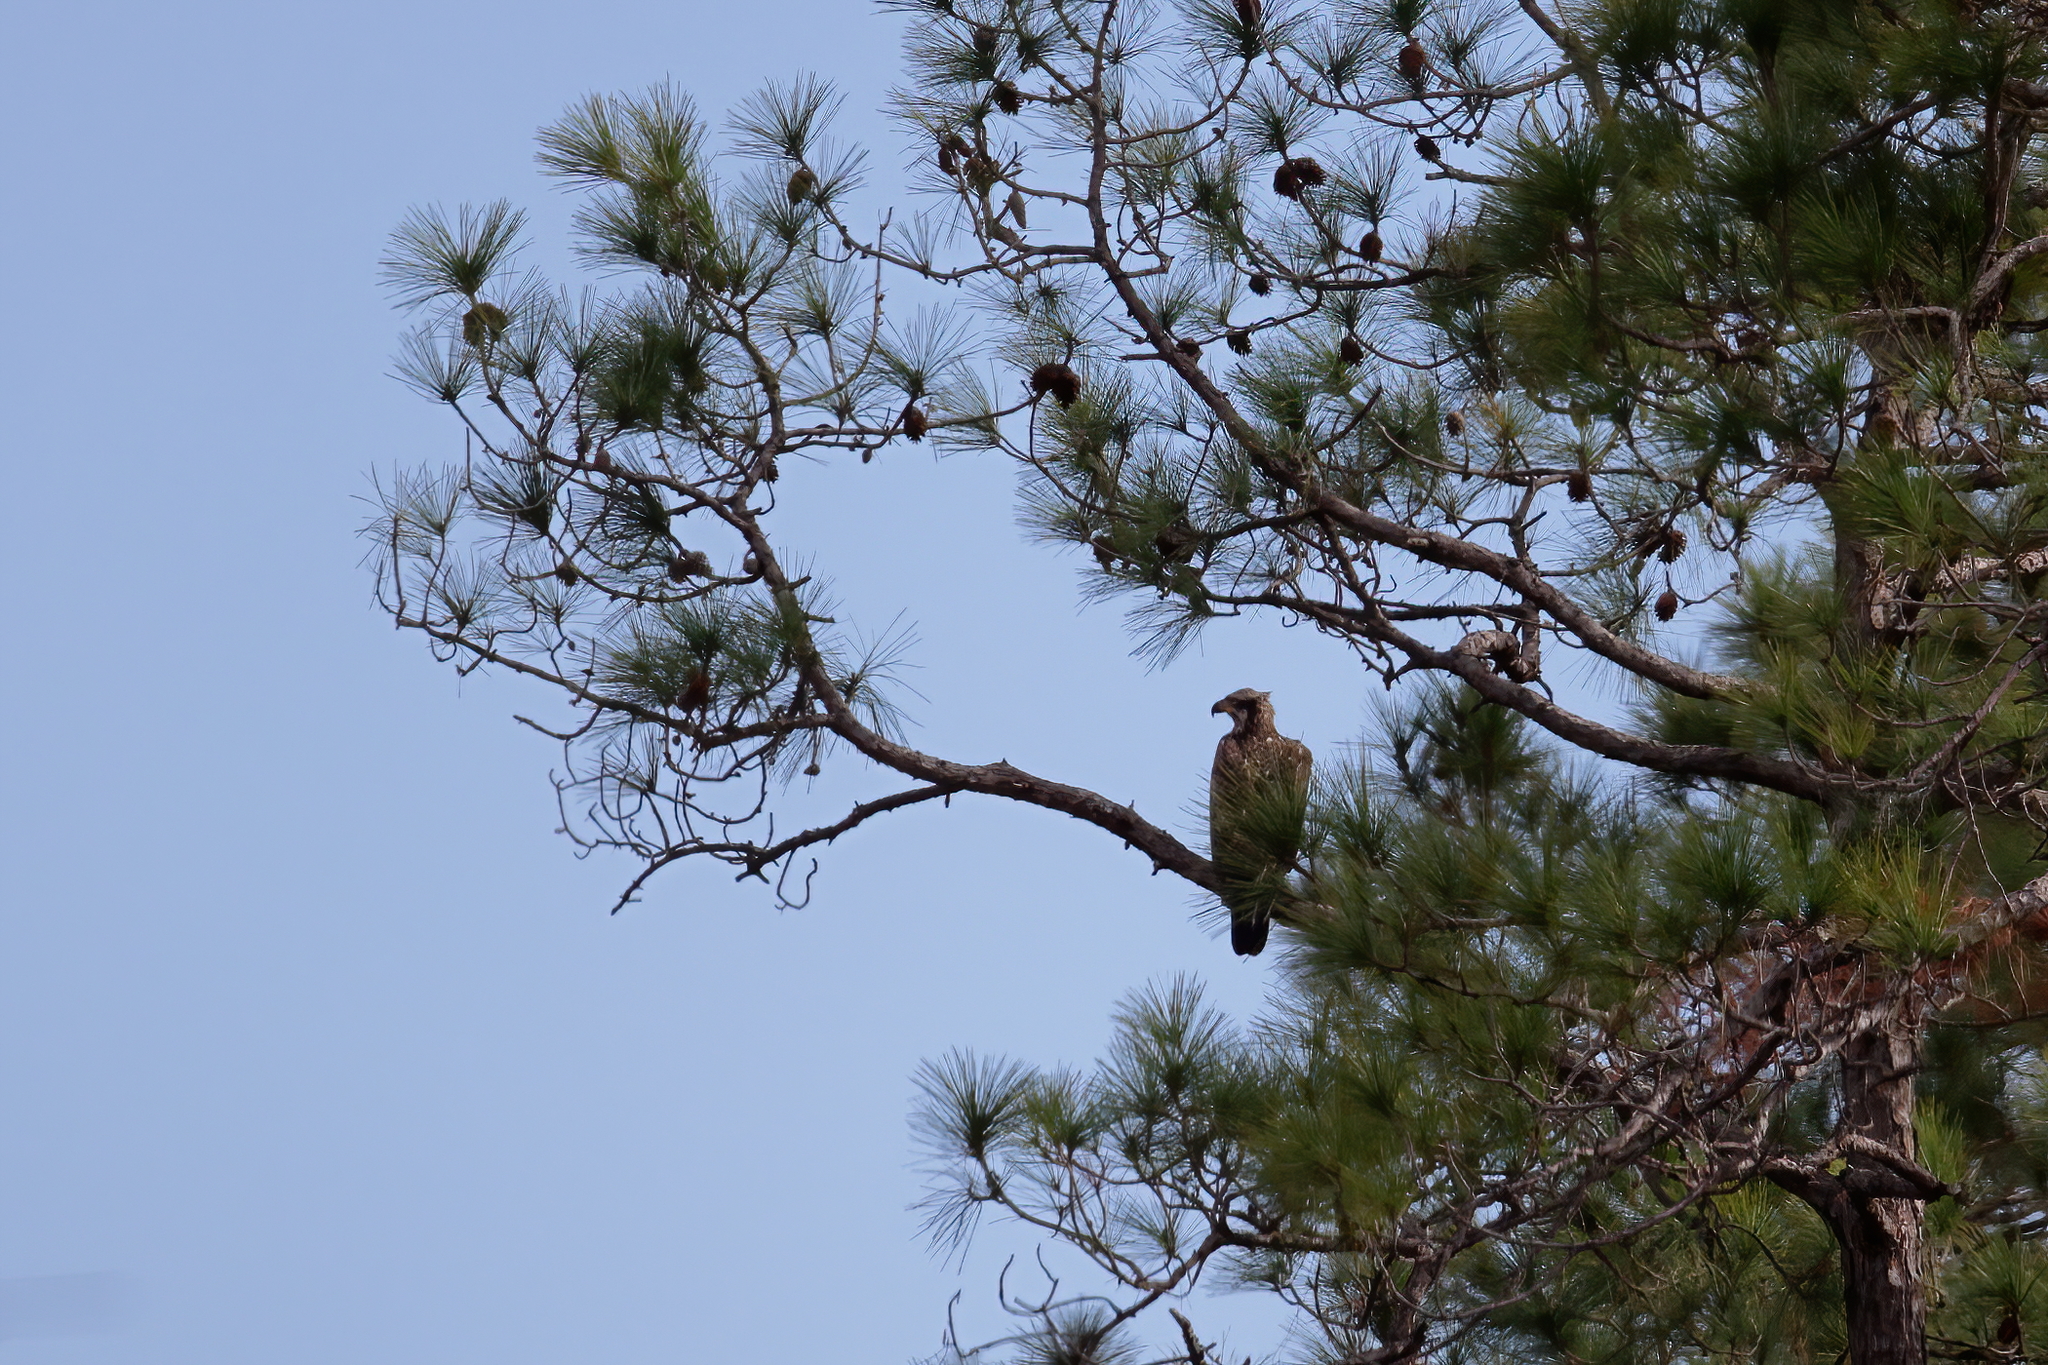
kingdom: Animalia
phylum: Chordata
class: Aves
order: Accipitriformes
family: Accipitridae
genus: Haliaeetus
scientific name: Haliaeetus leucocephalus
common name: Bald eagle
